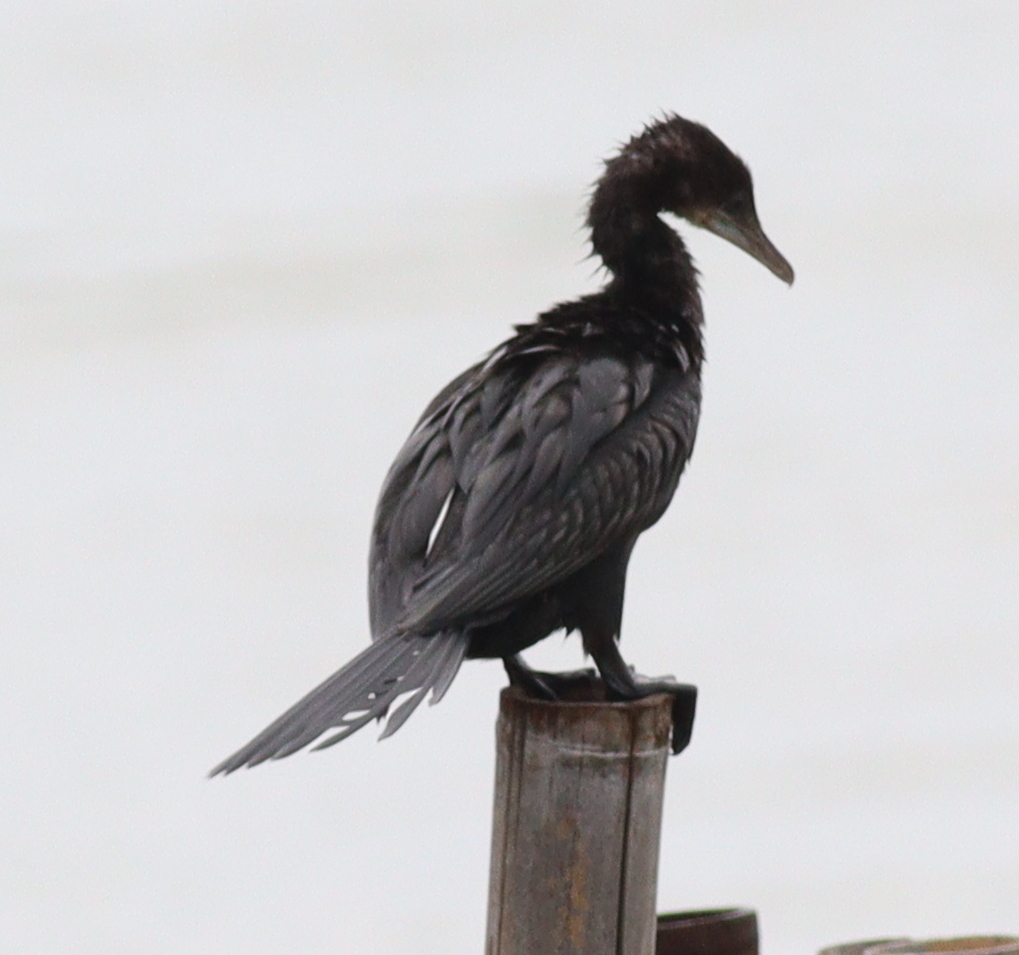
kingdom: Animalia
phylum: Chordata
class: Aves
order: Suliformes
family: Phalacrocoracidae
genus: Microcarbo
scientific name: Microcarbo niger
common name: Little cormorant
